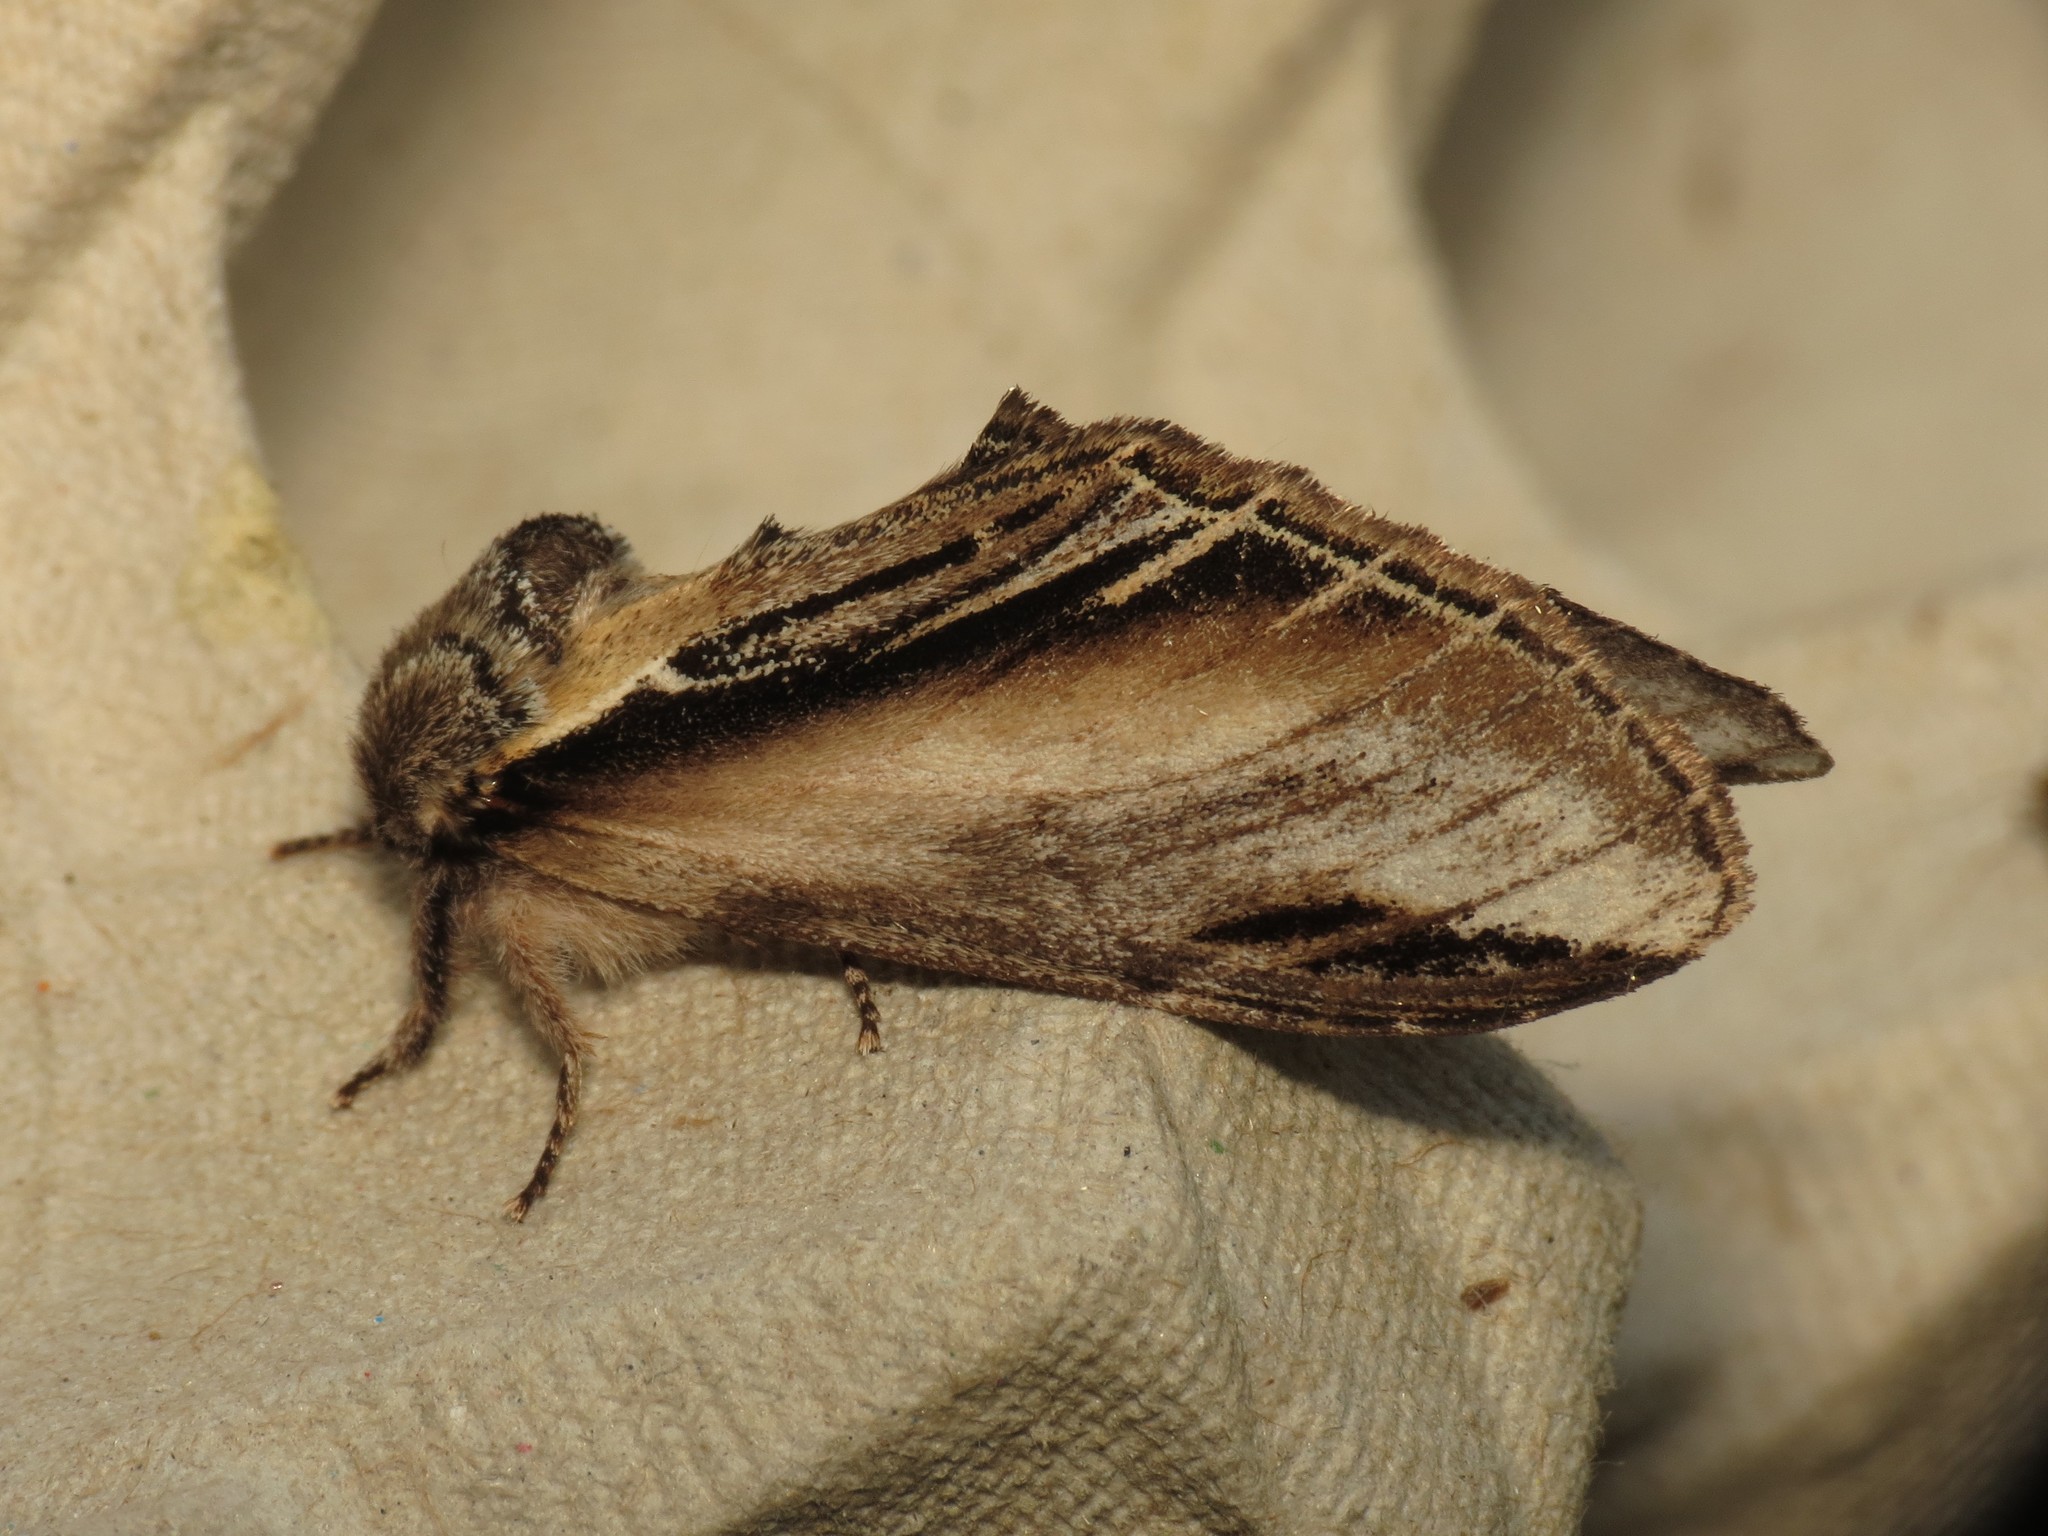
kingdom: Animalia
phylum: Arthropoda
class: Insecta
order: Lepidoptera
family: Notodontidae
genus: Pheosia
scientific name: Pheosia tremula
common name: Swallow prominent
